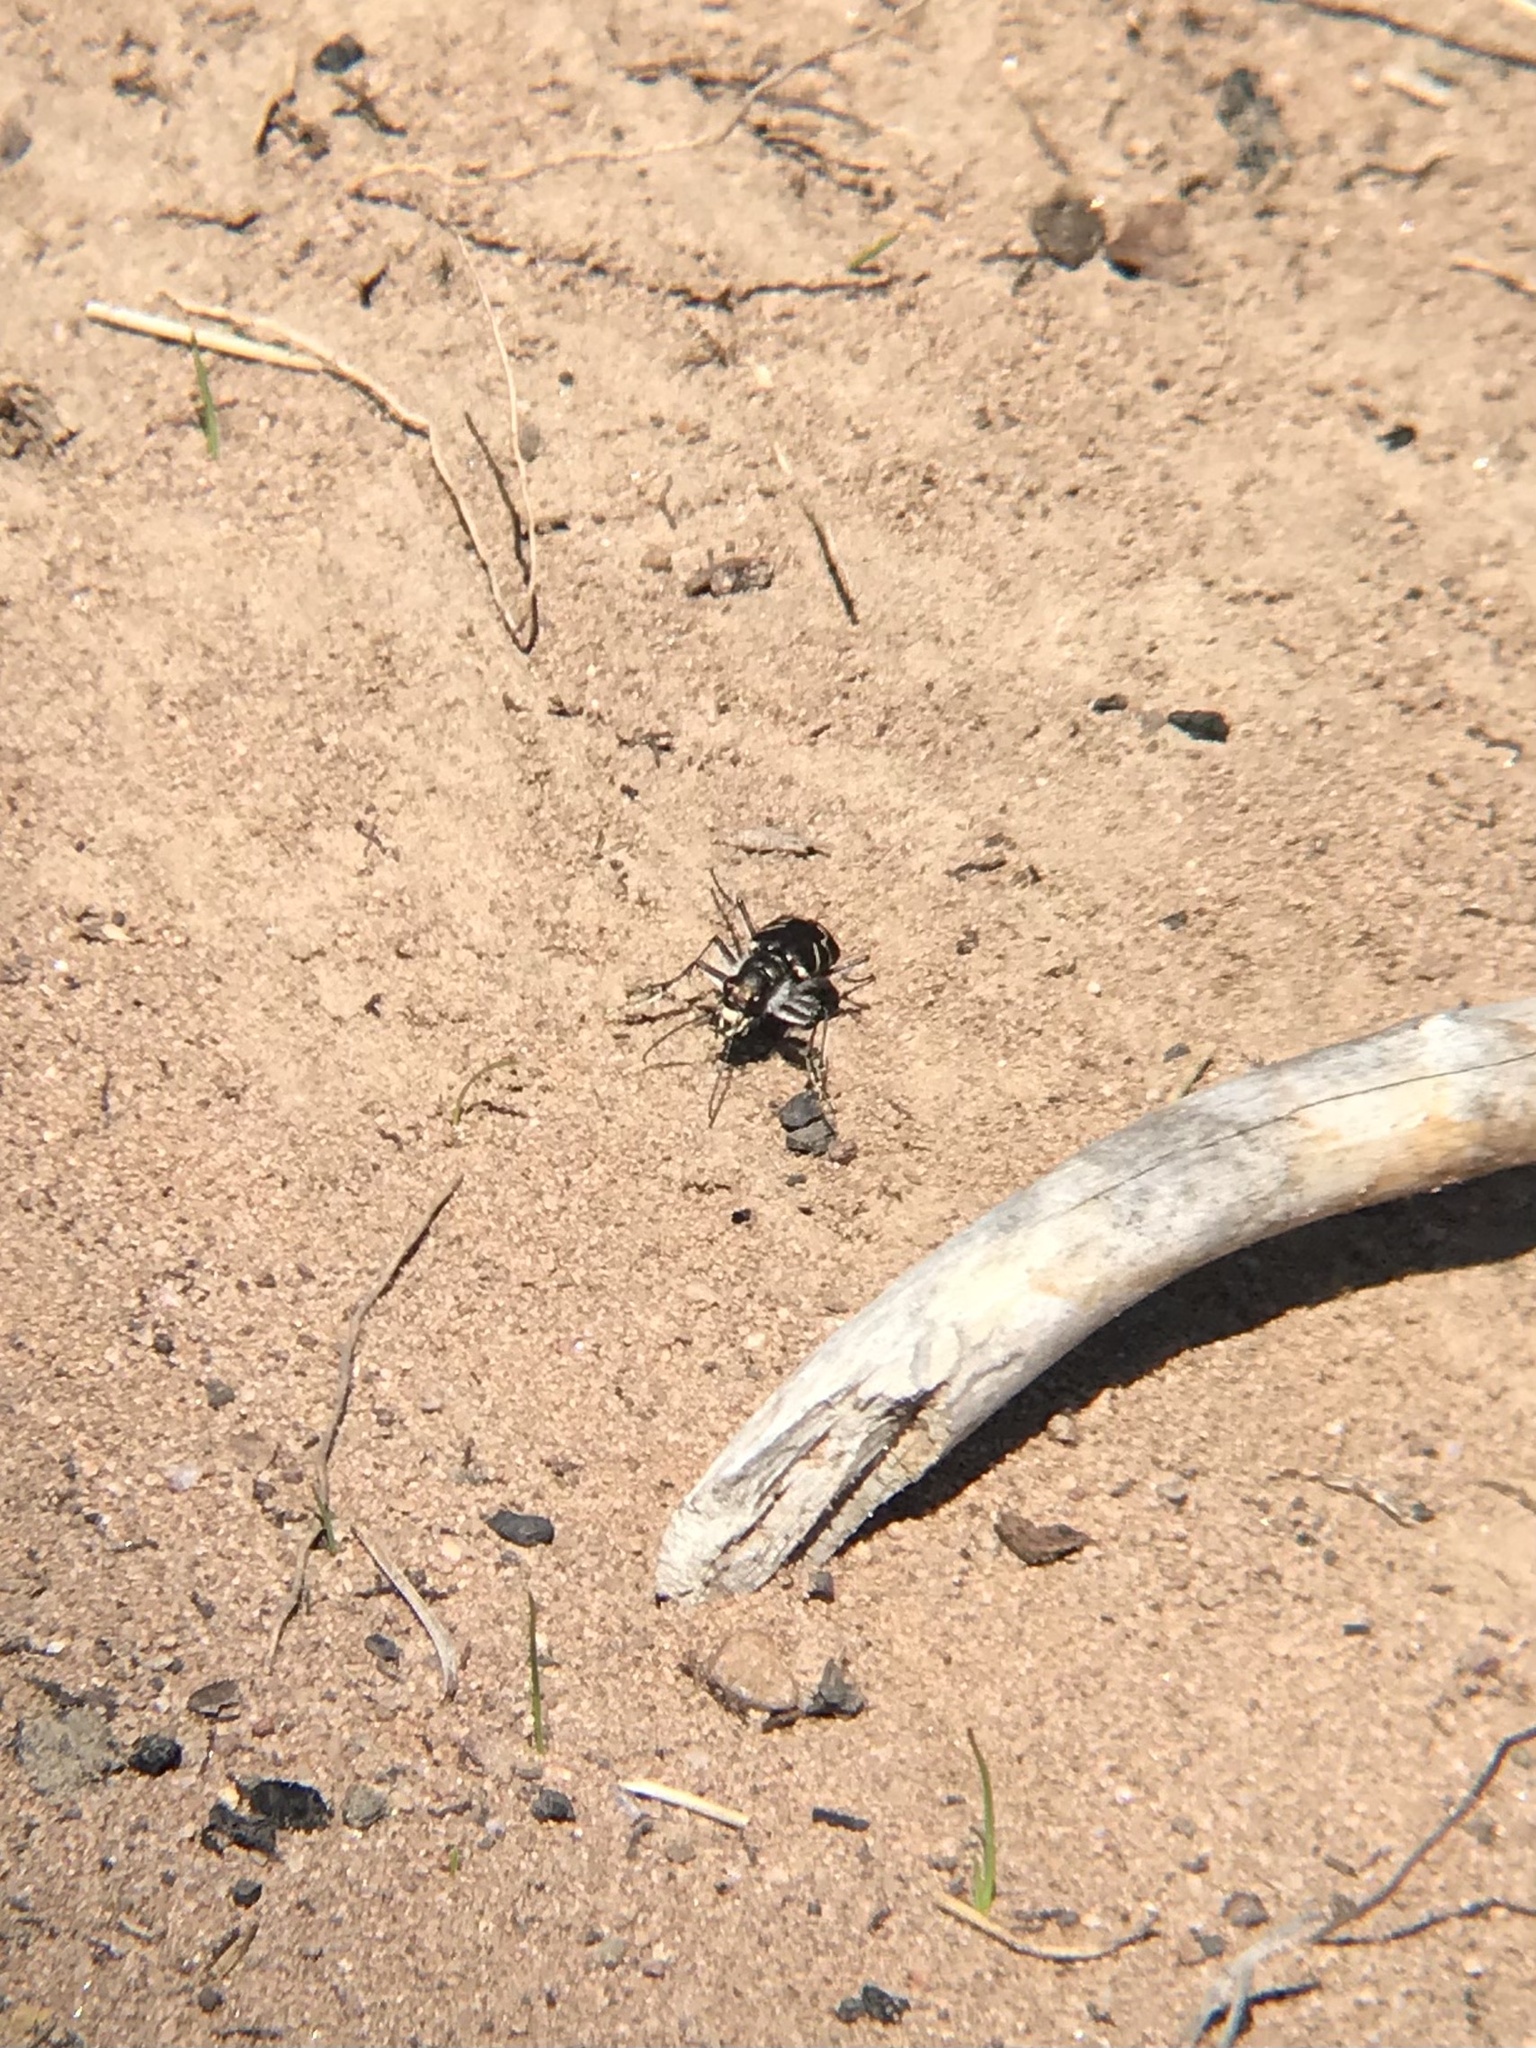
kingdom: Animalia
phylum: Arthropoda
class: Insecta
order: Coleoptera
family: Carabidae
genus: Cicindela
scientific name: Cicindela tranquebarica
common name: Oblique-lined tiger beetle
